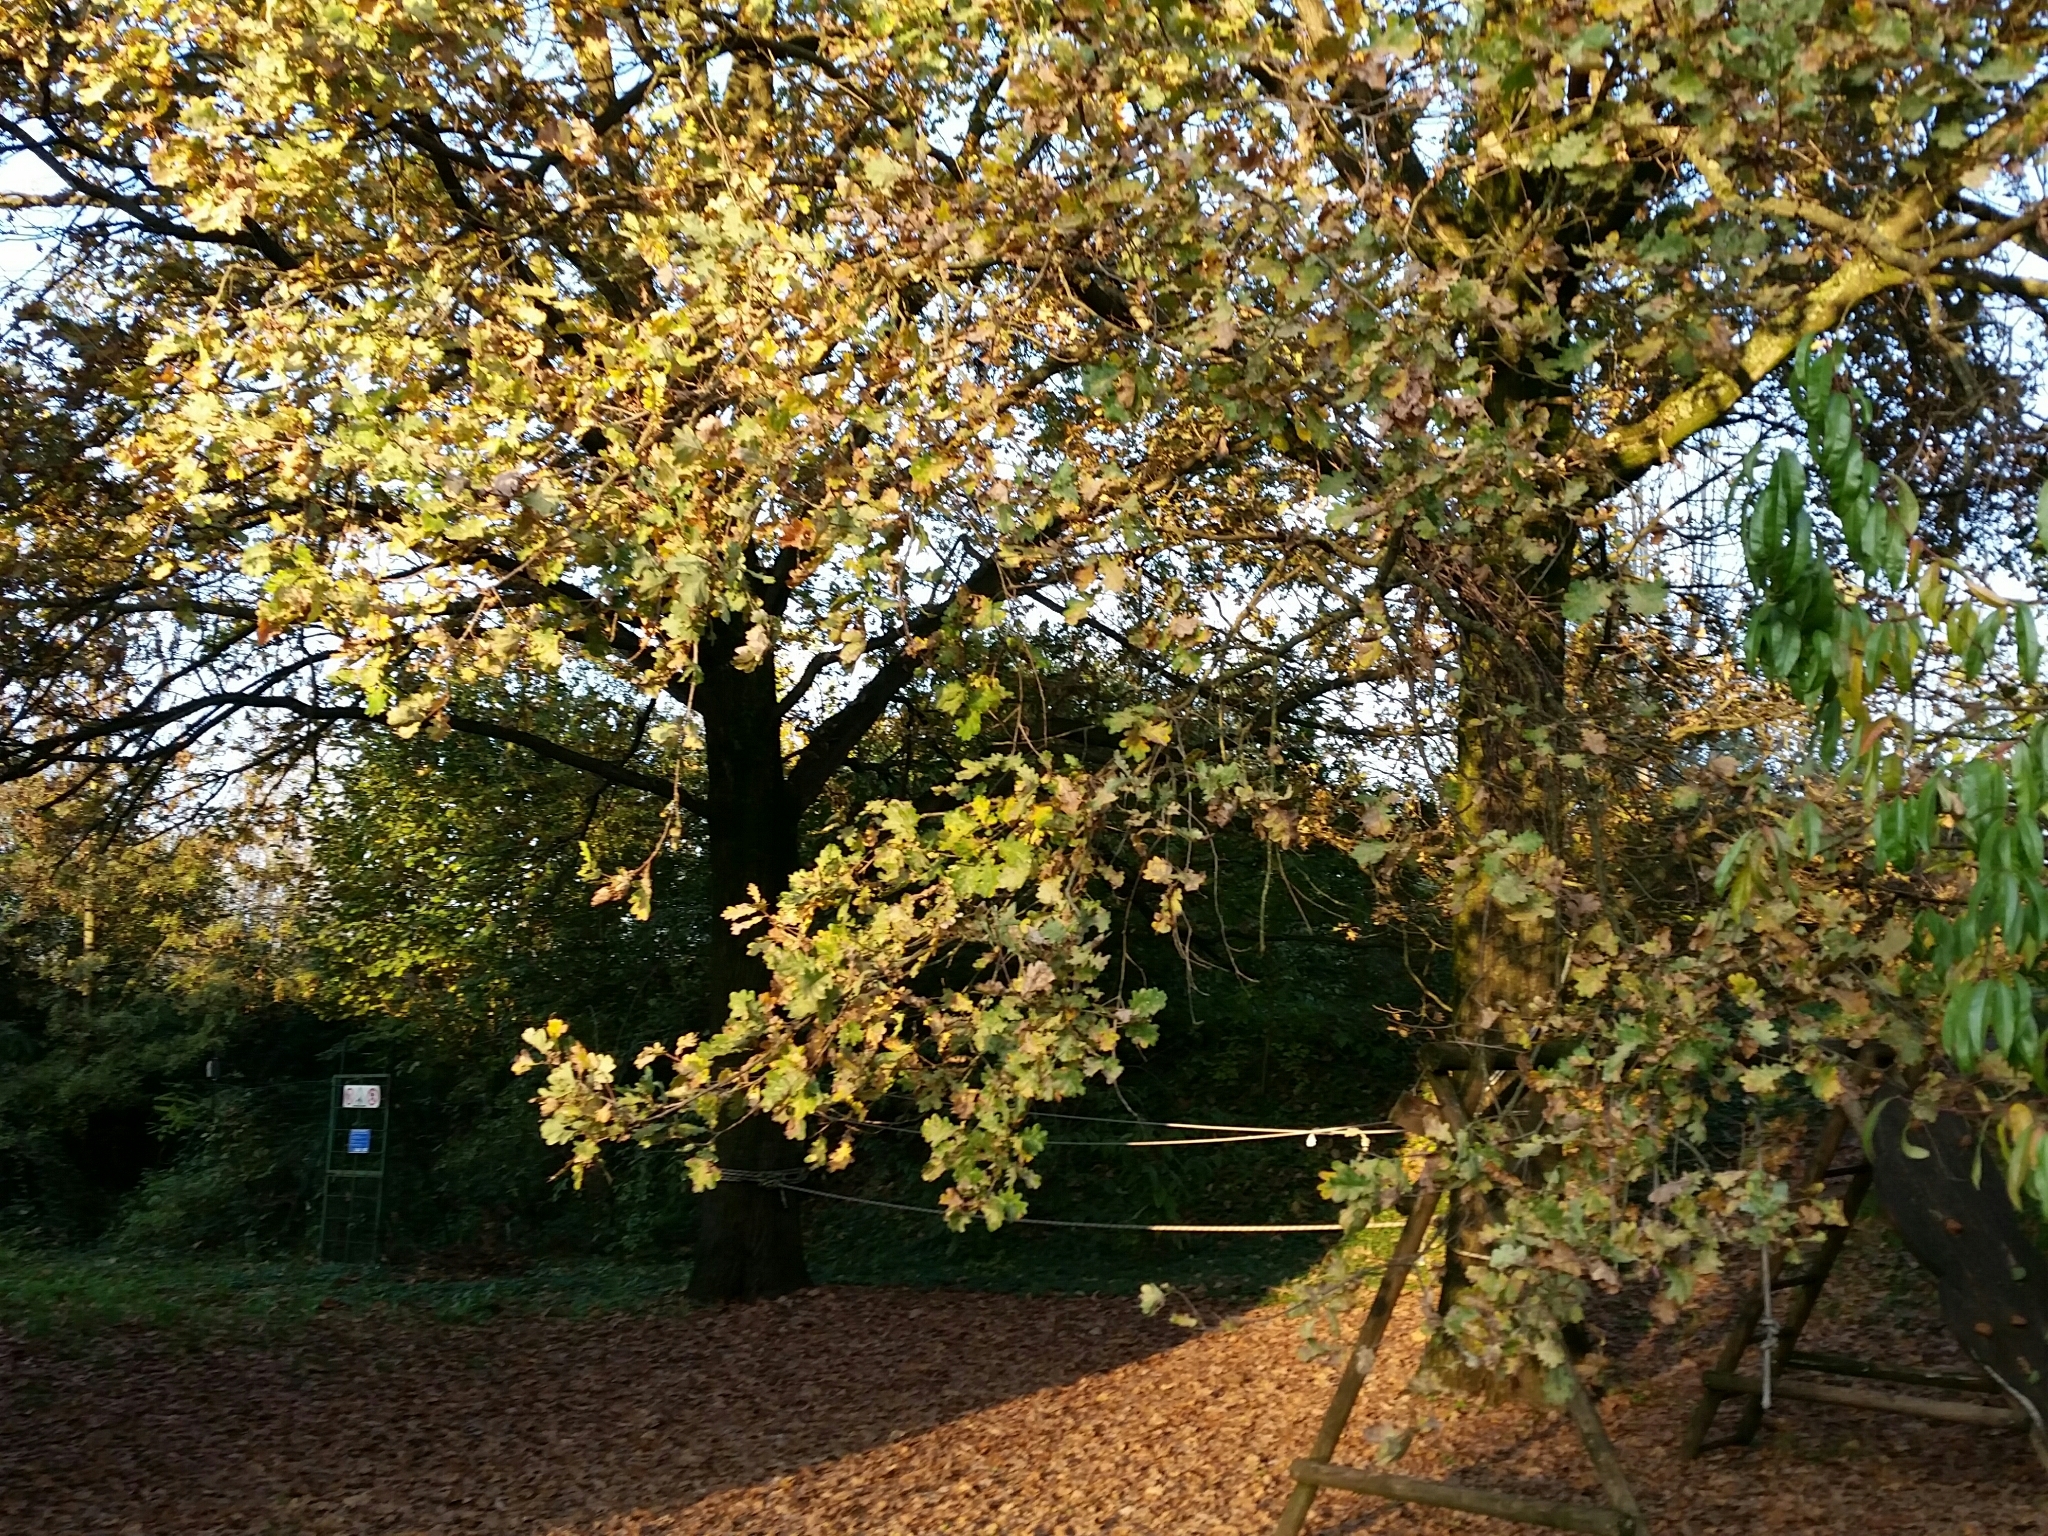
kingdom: Plantae
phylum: Tracheophyta
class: Magnoliopsida
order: Fagales
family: Fagaceae
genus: Quercus
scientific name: Quercus robur
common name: Pedunculate oak
